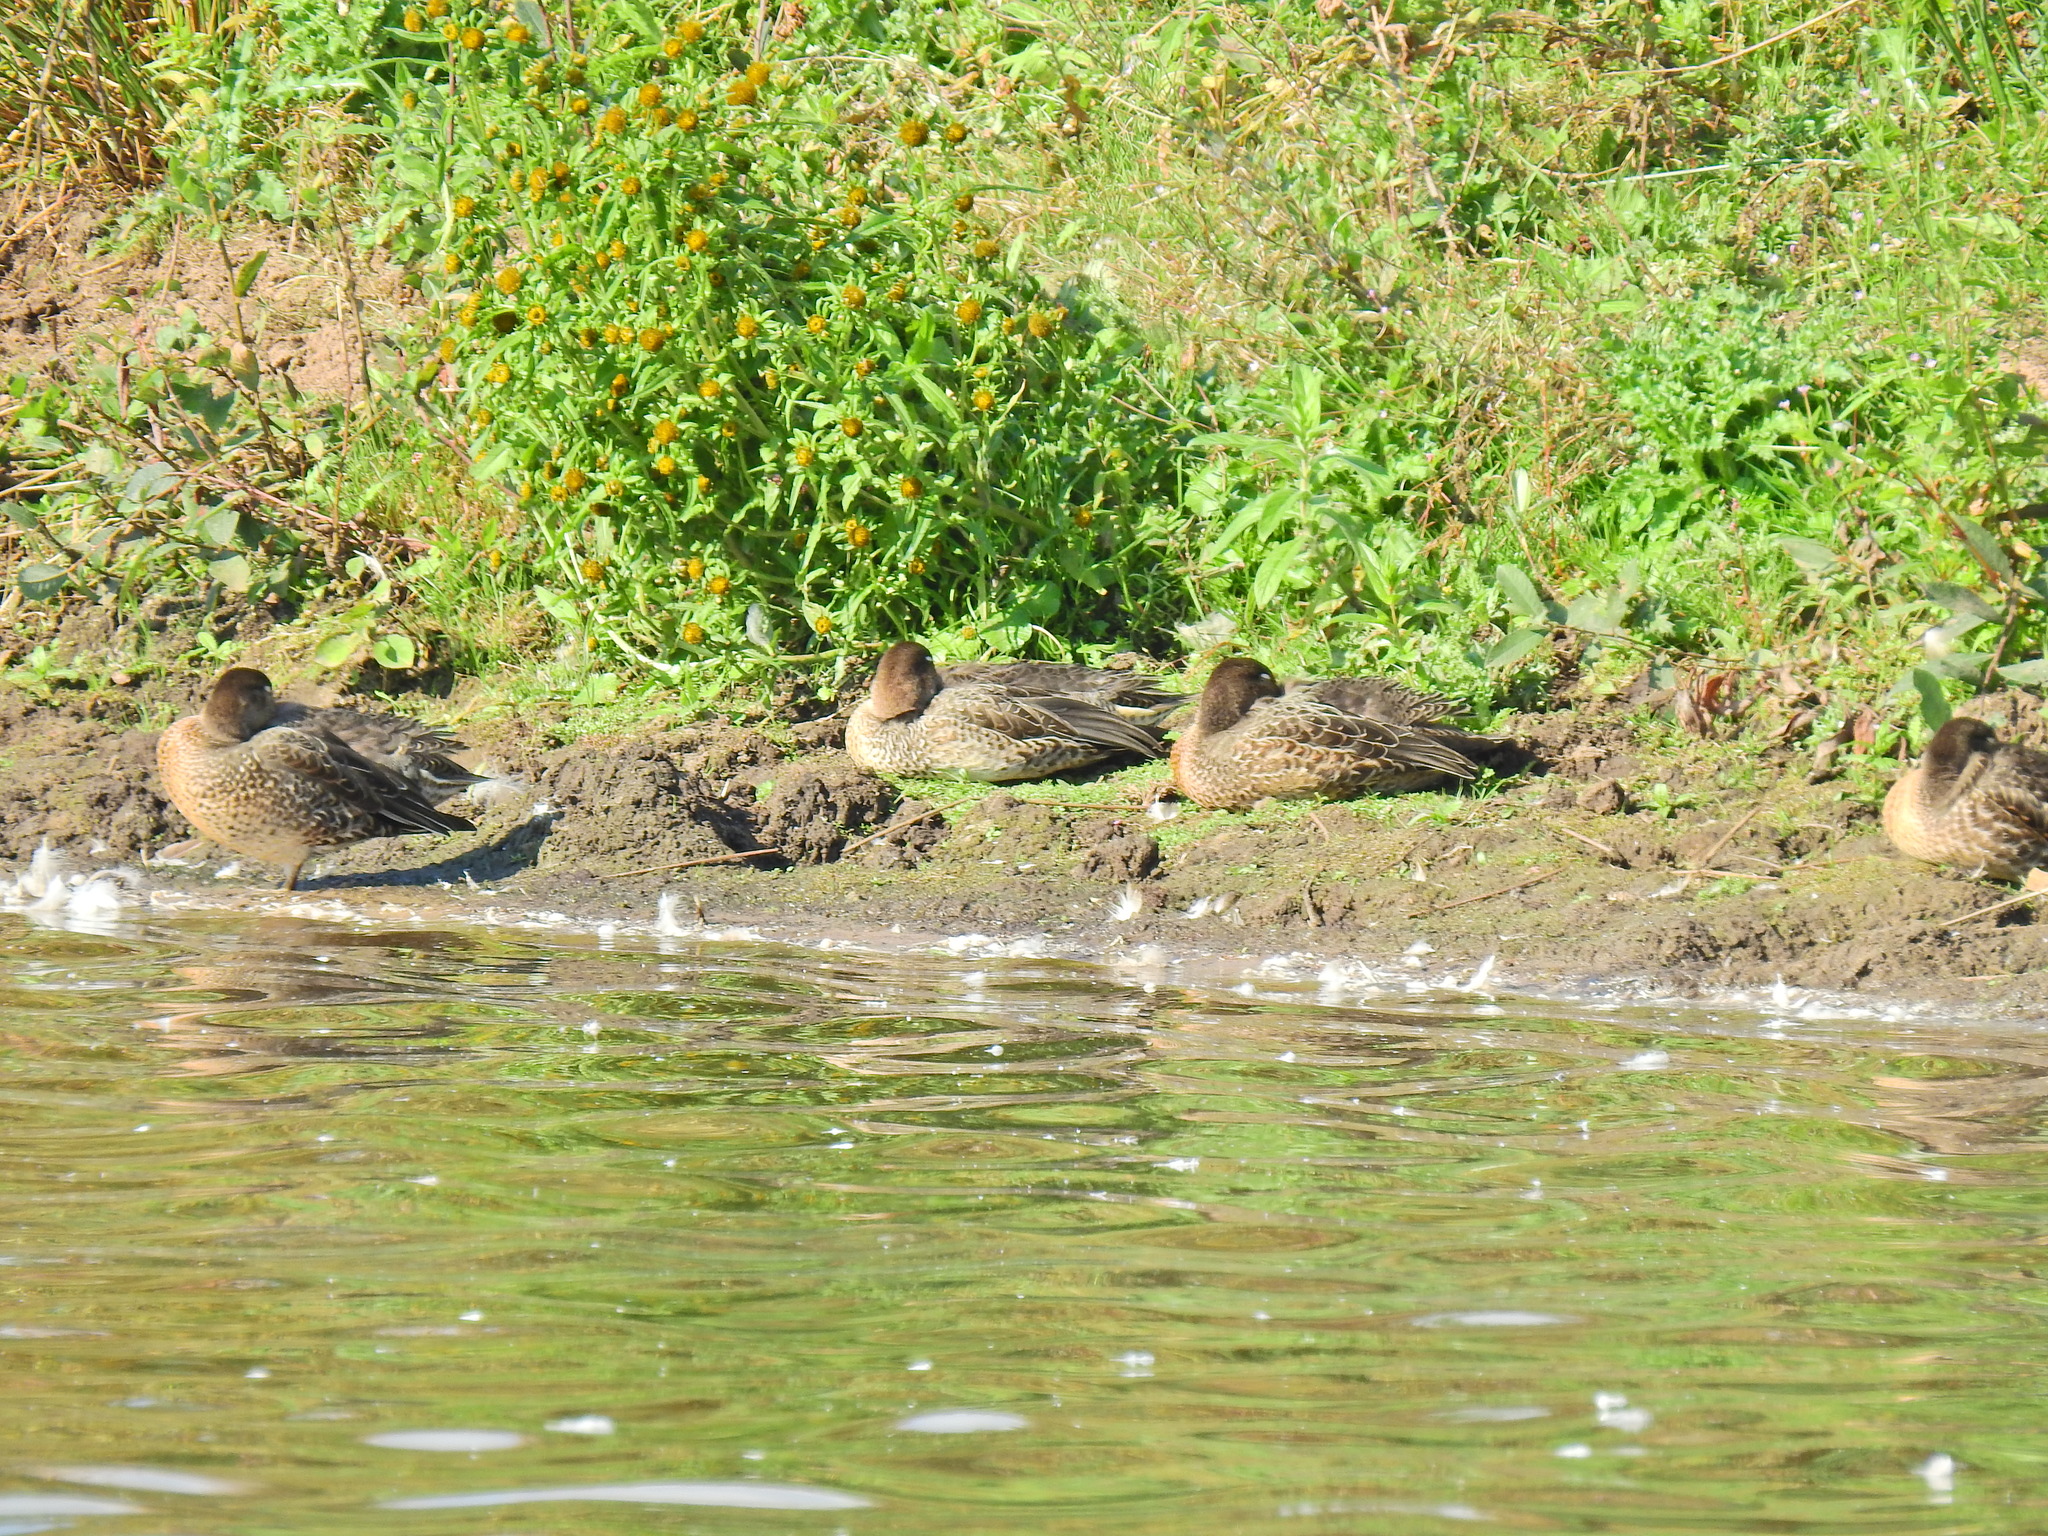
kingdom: Animalia
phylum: Chordata
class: Aves
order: Anseriformes
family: Anatidae
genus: Anas
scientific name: Anas crecca
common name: Eurasian teal
